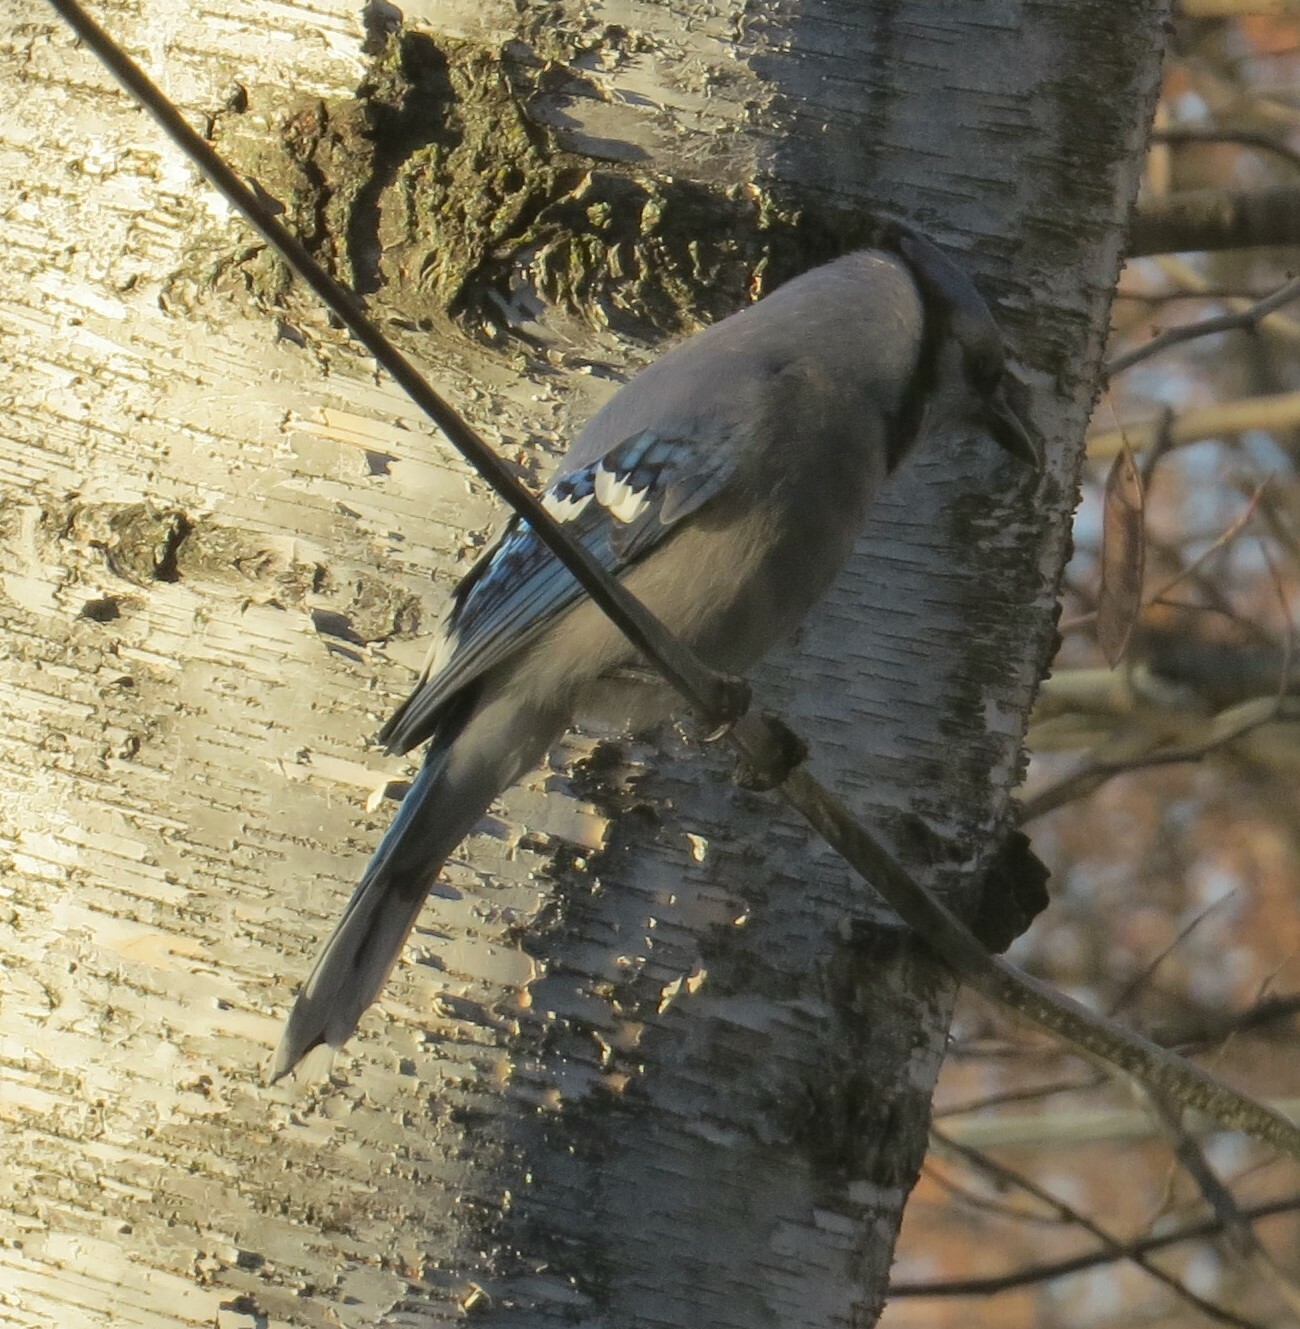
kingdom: Animalia
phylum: Chordata
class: Aves
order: Passeriformes
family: Corvidae
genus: Cyanocitta
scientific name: Cyanocitta cristata
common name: Blue jay
